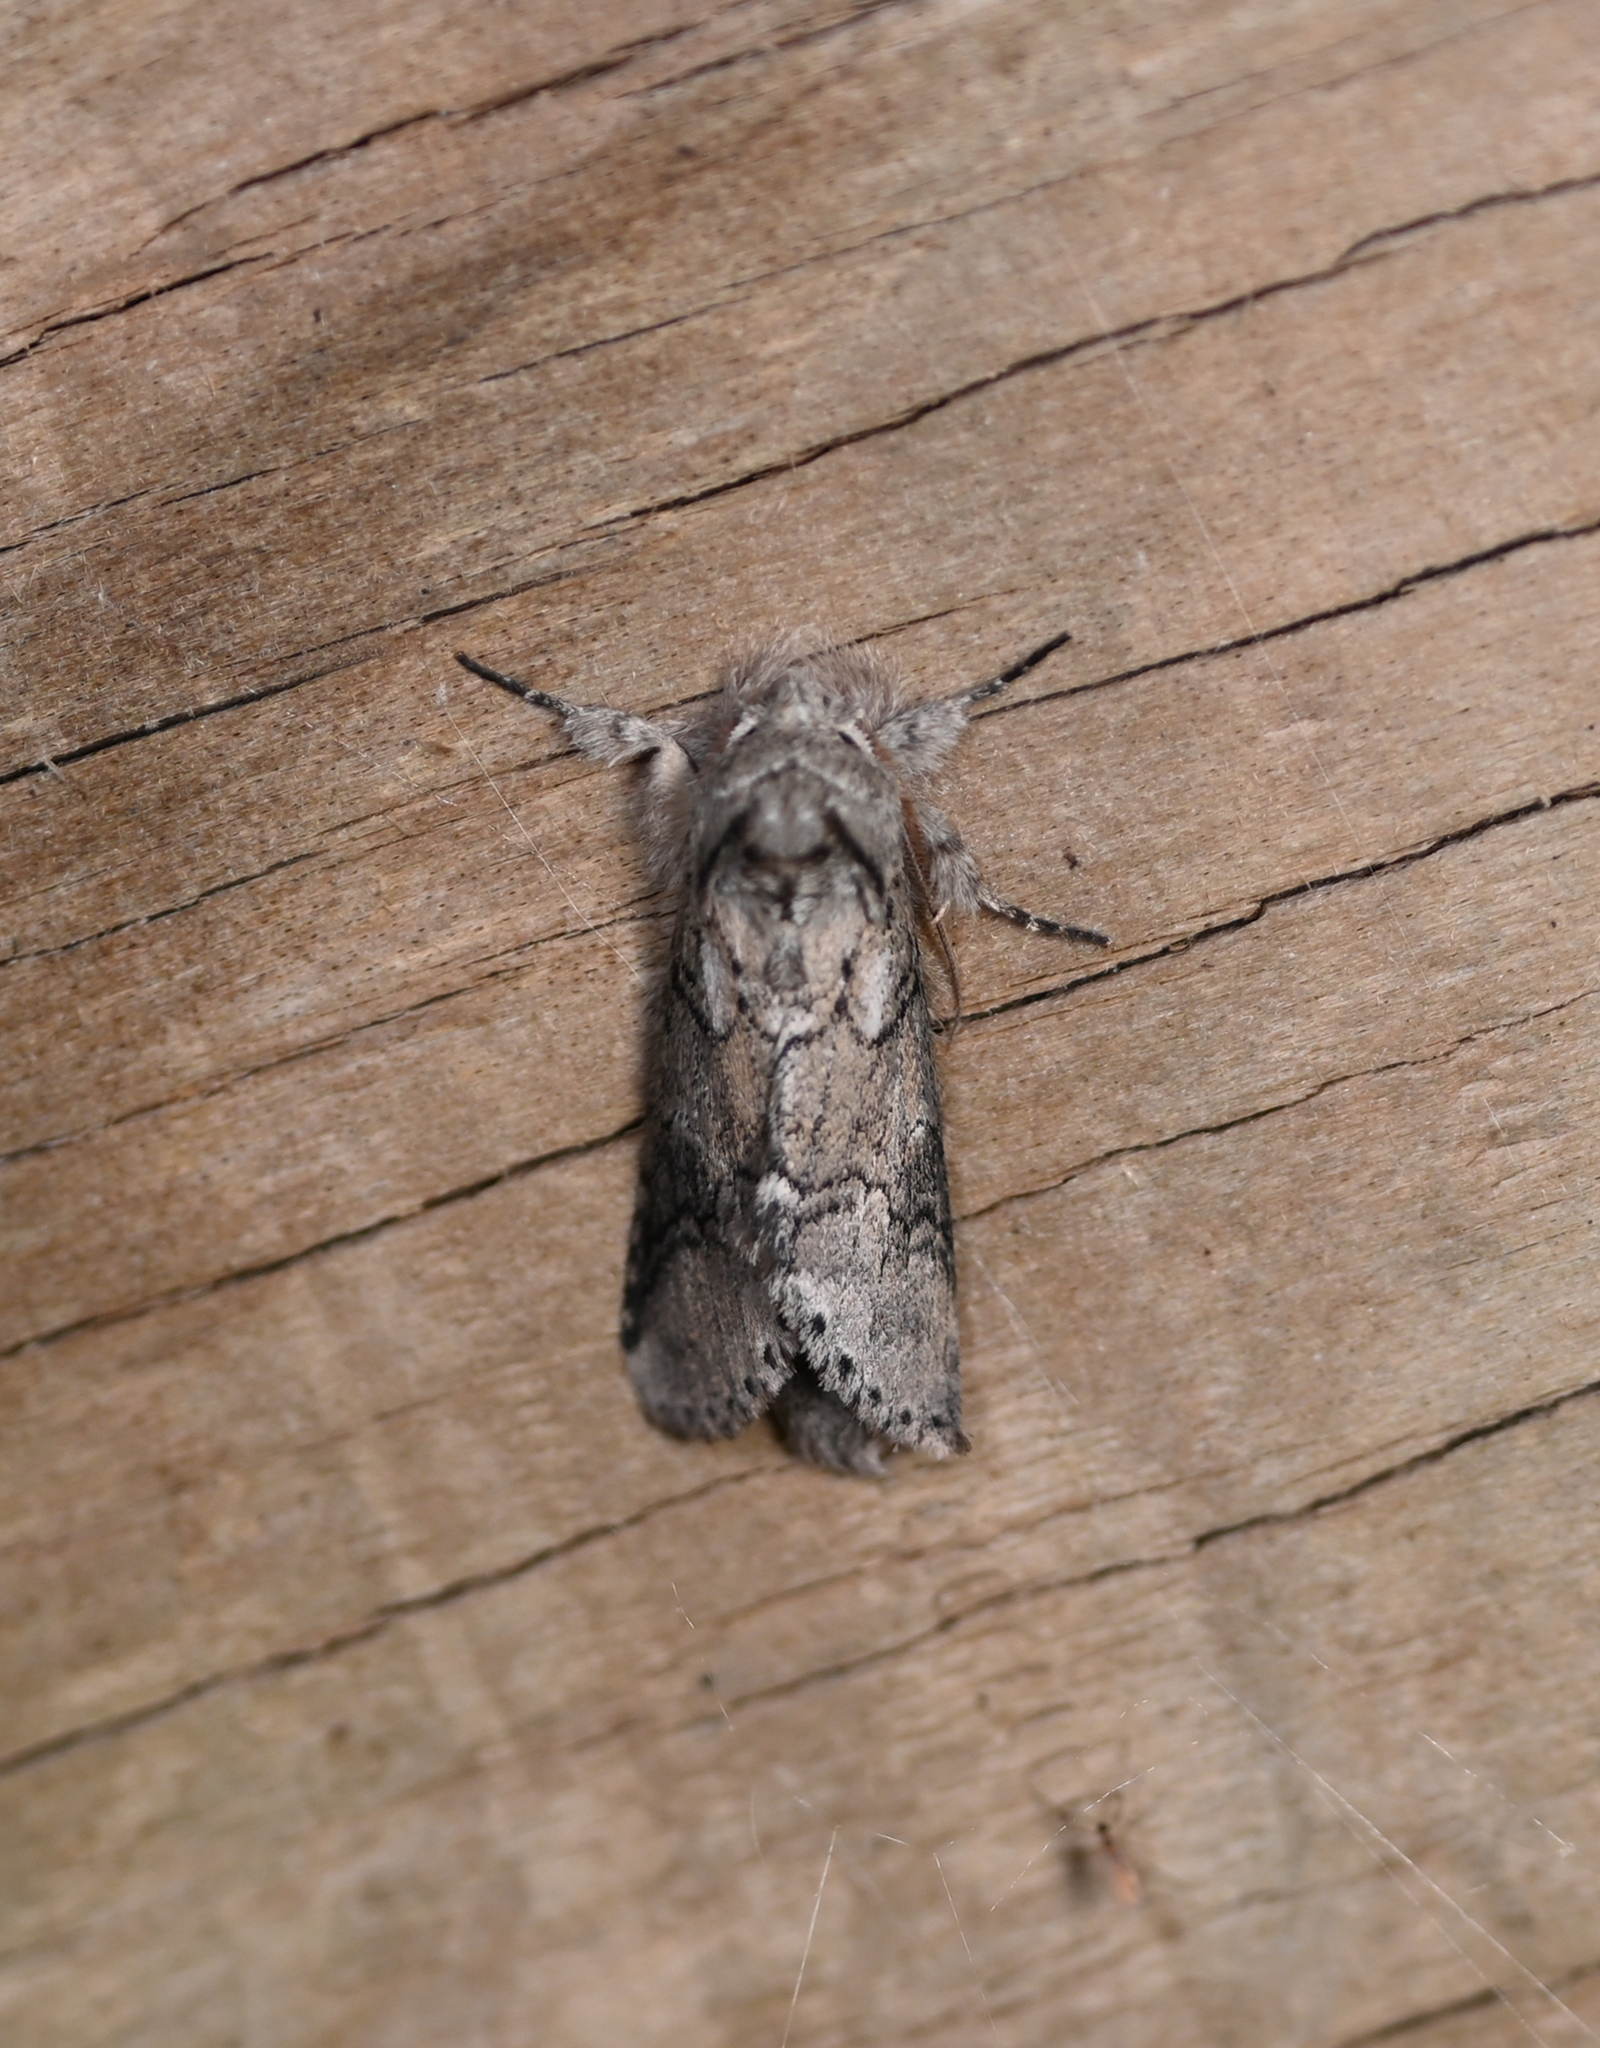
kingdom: Animalia
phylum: Arthropoda
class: Insecta
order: Lepidoptera
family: Notodontidae
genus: Lochmaeus
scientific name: Lochmaeus bilineata
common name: Double-lined prominent
